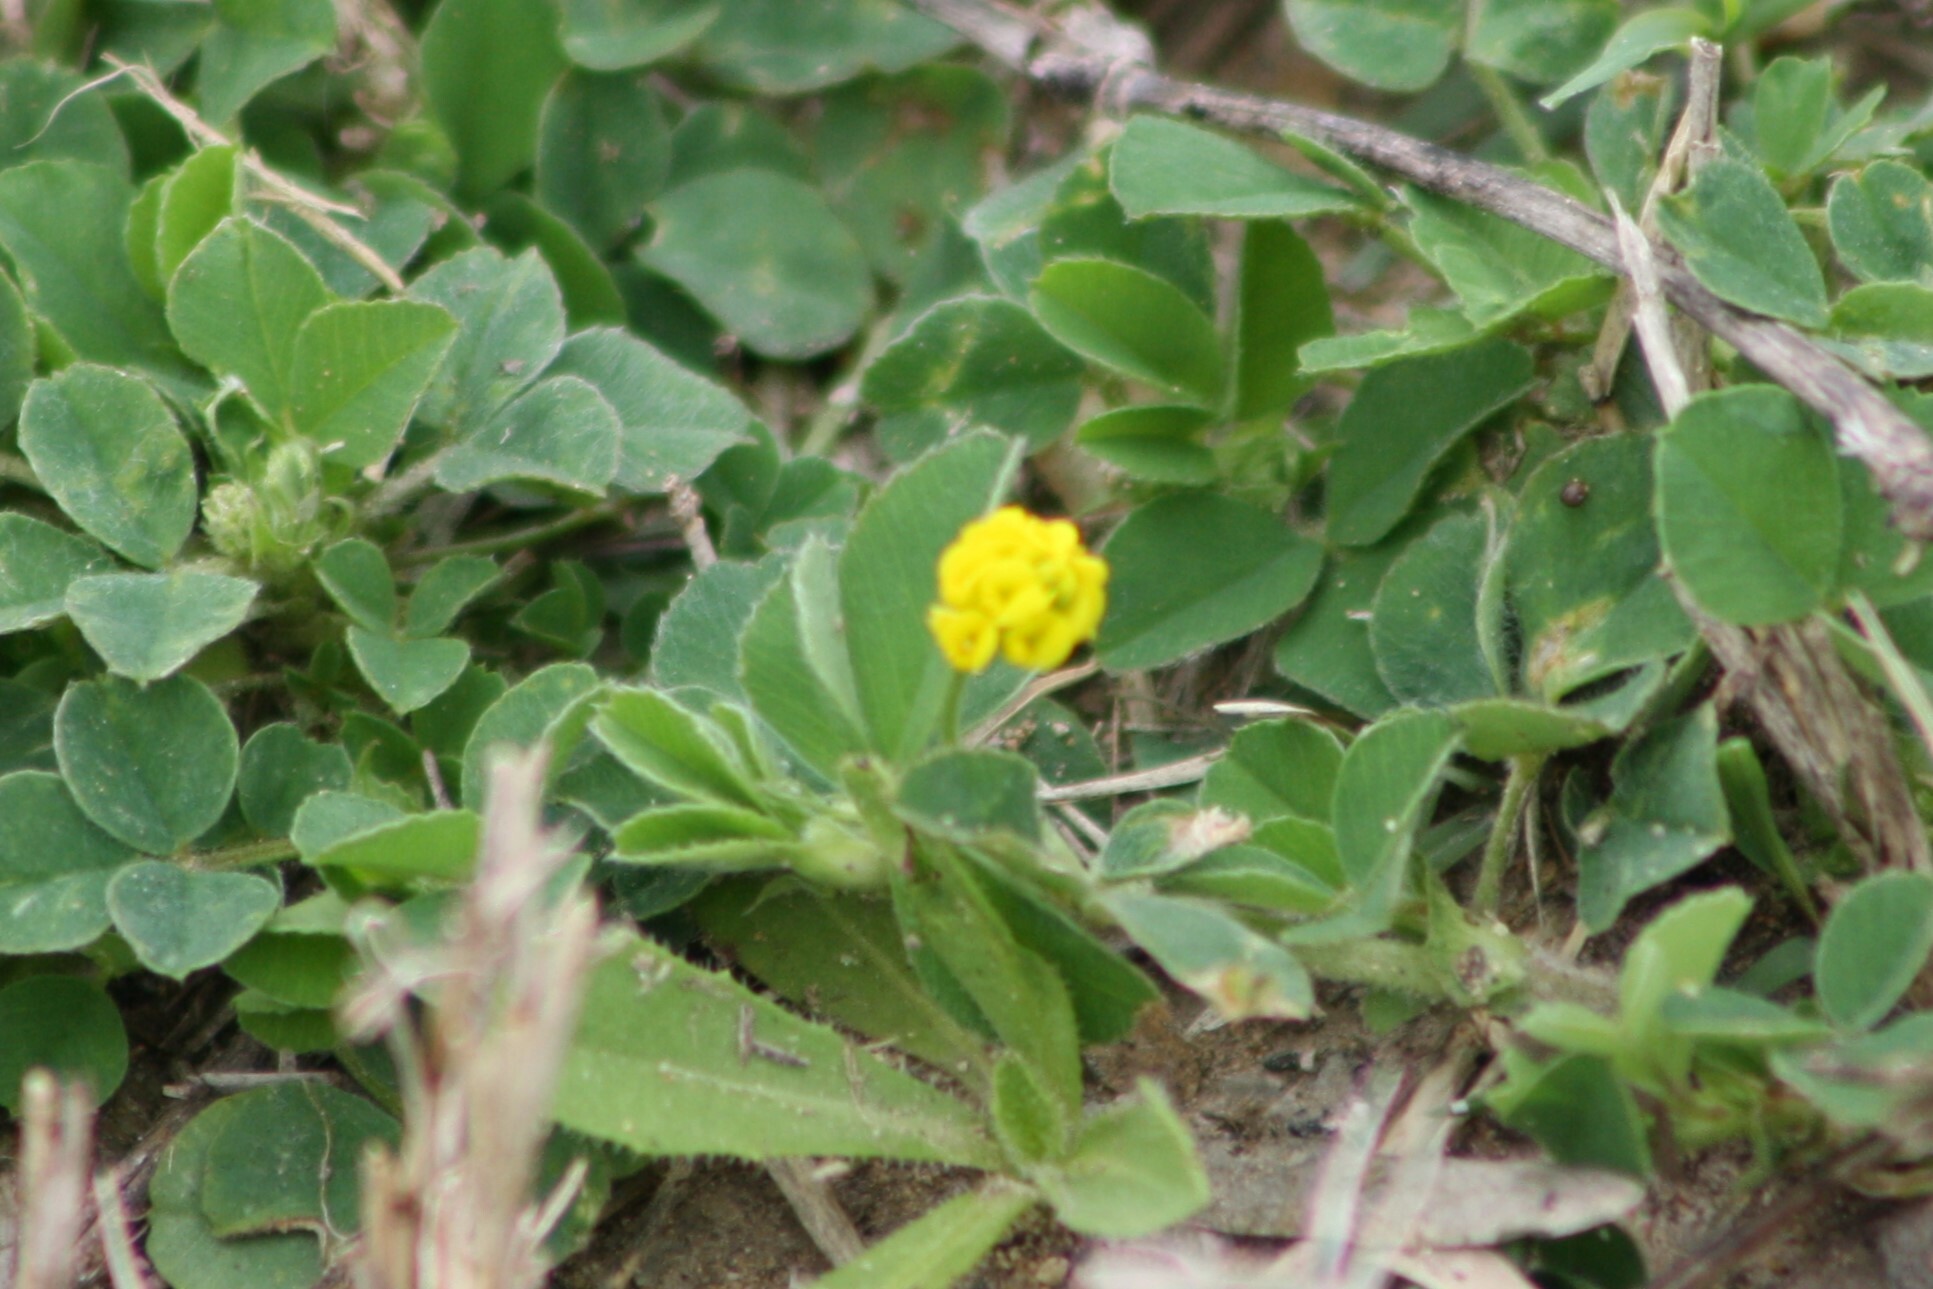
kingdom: Plantae
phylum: Tracheophyta
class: Magnoliopsida
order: Fabales
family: Fabaceae
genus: Medicago
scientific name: Medicago lupulina
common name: Black medick
